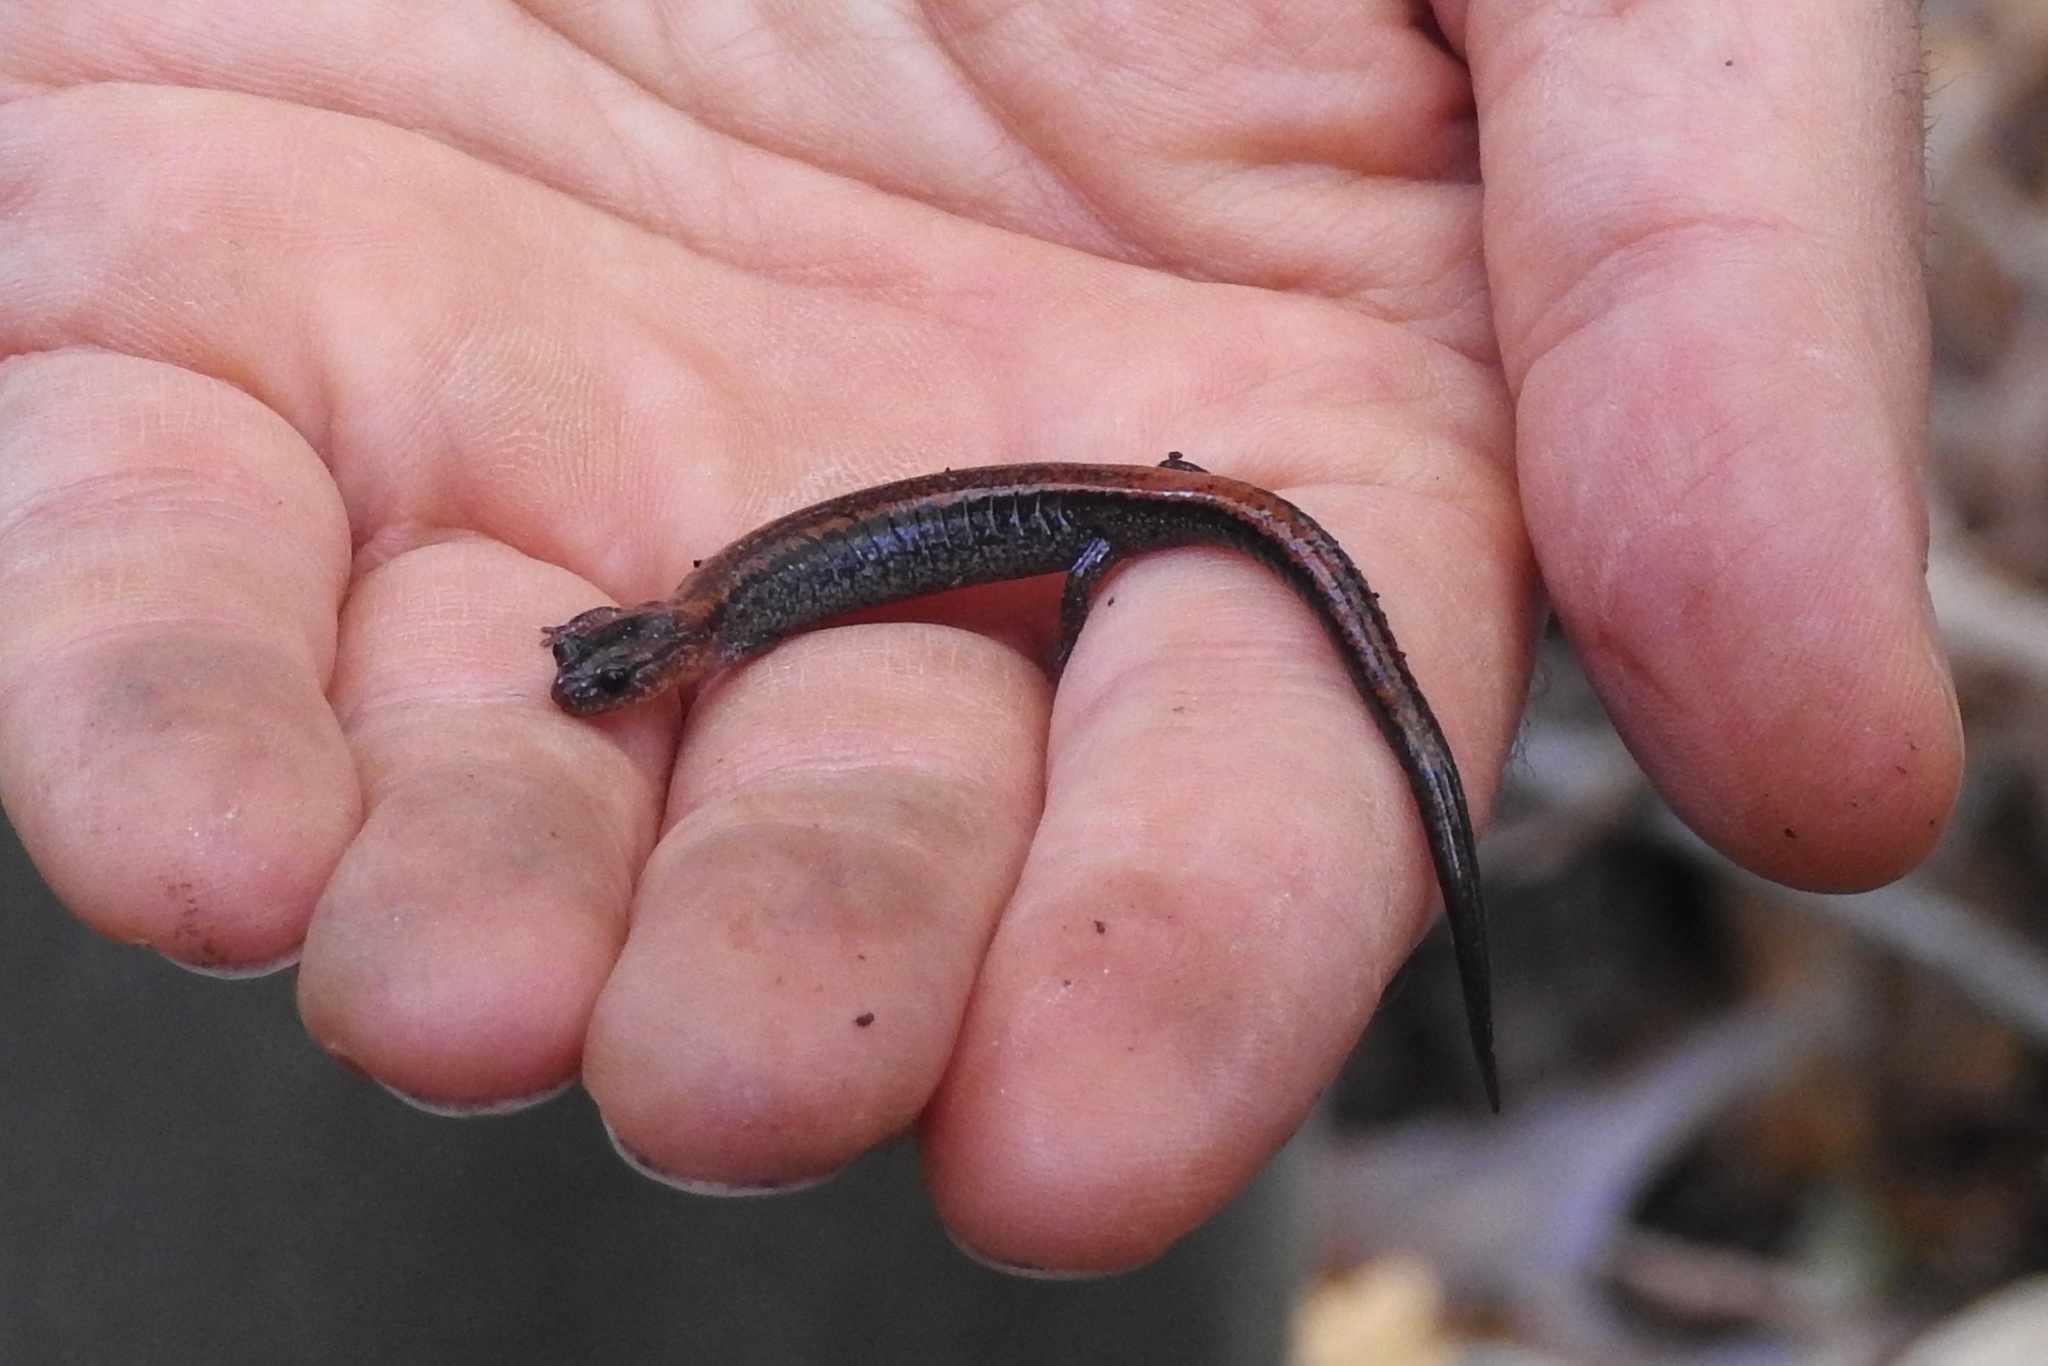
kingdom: Animalia
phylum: Chordata
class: Amphibia
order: Caudata
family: Plethodontidae
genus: Plethodon
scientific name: Plethodon cinereus
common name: Redback salamander
